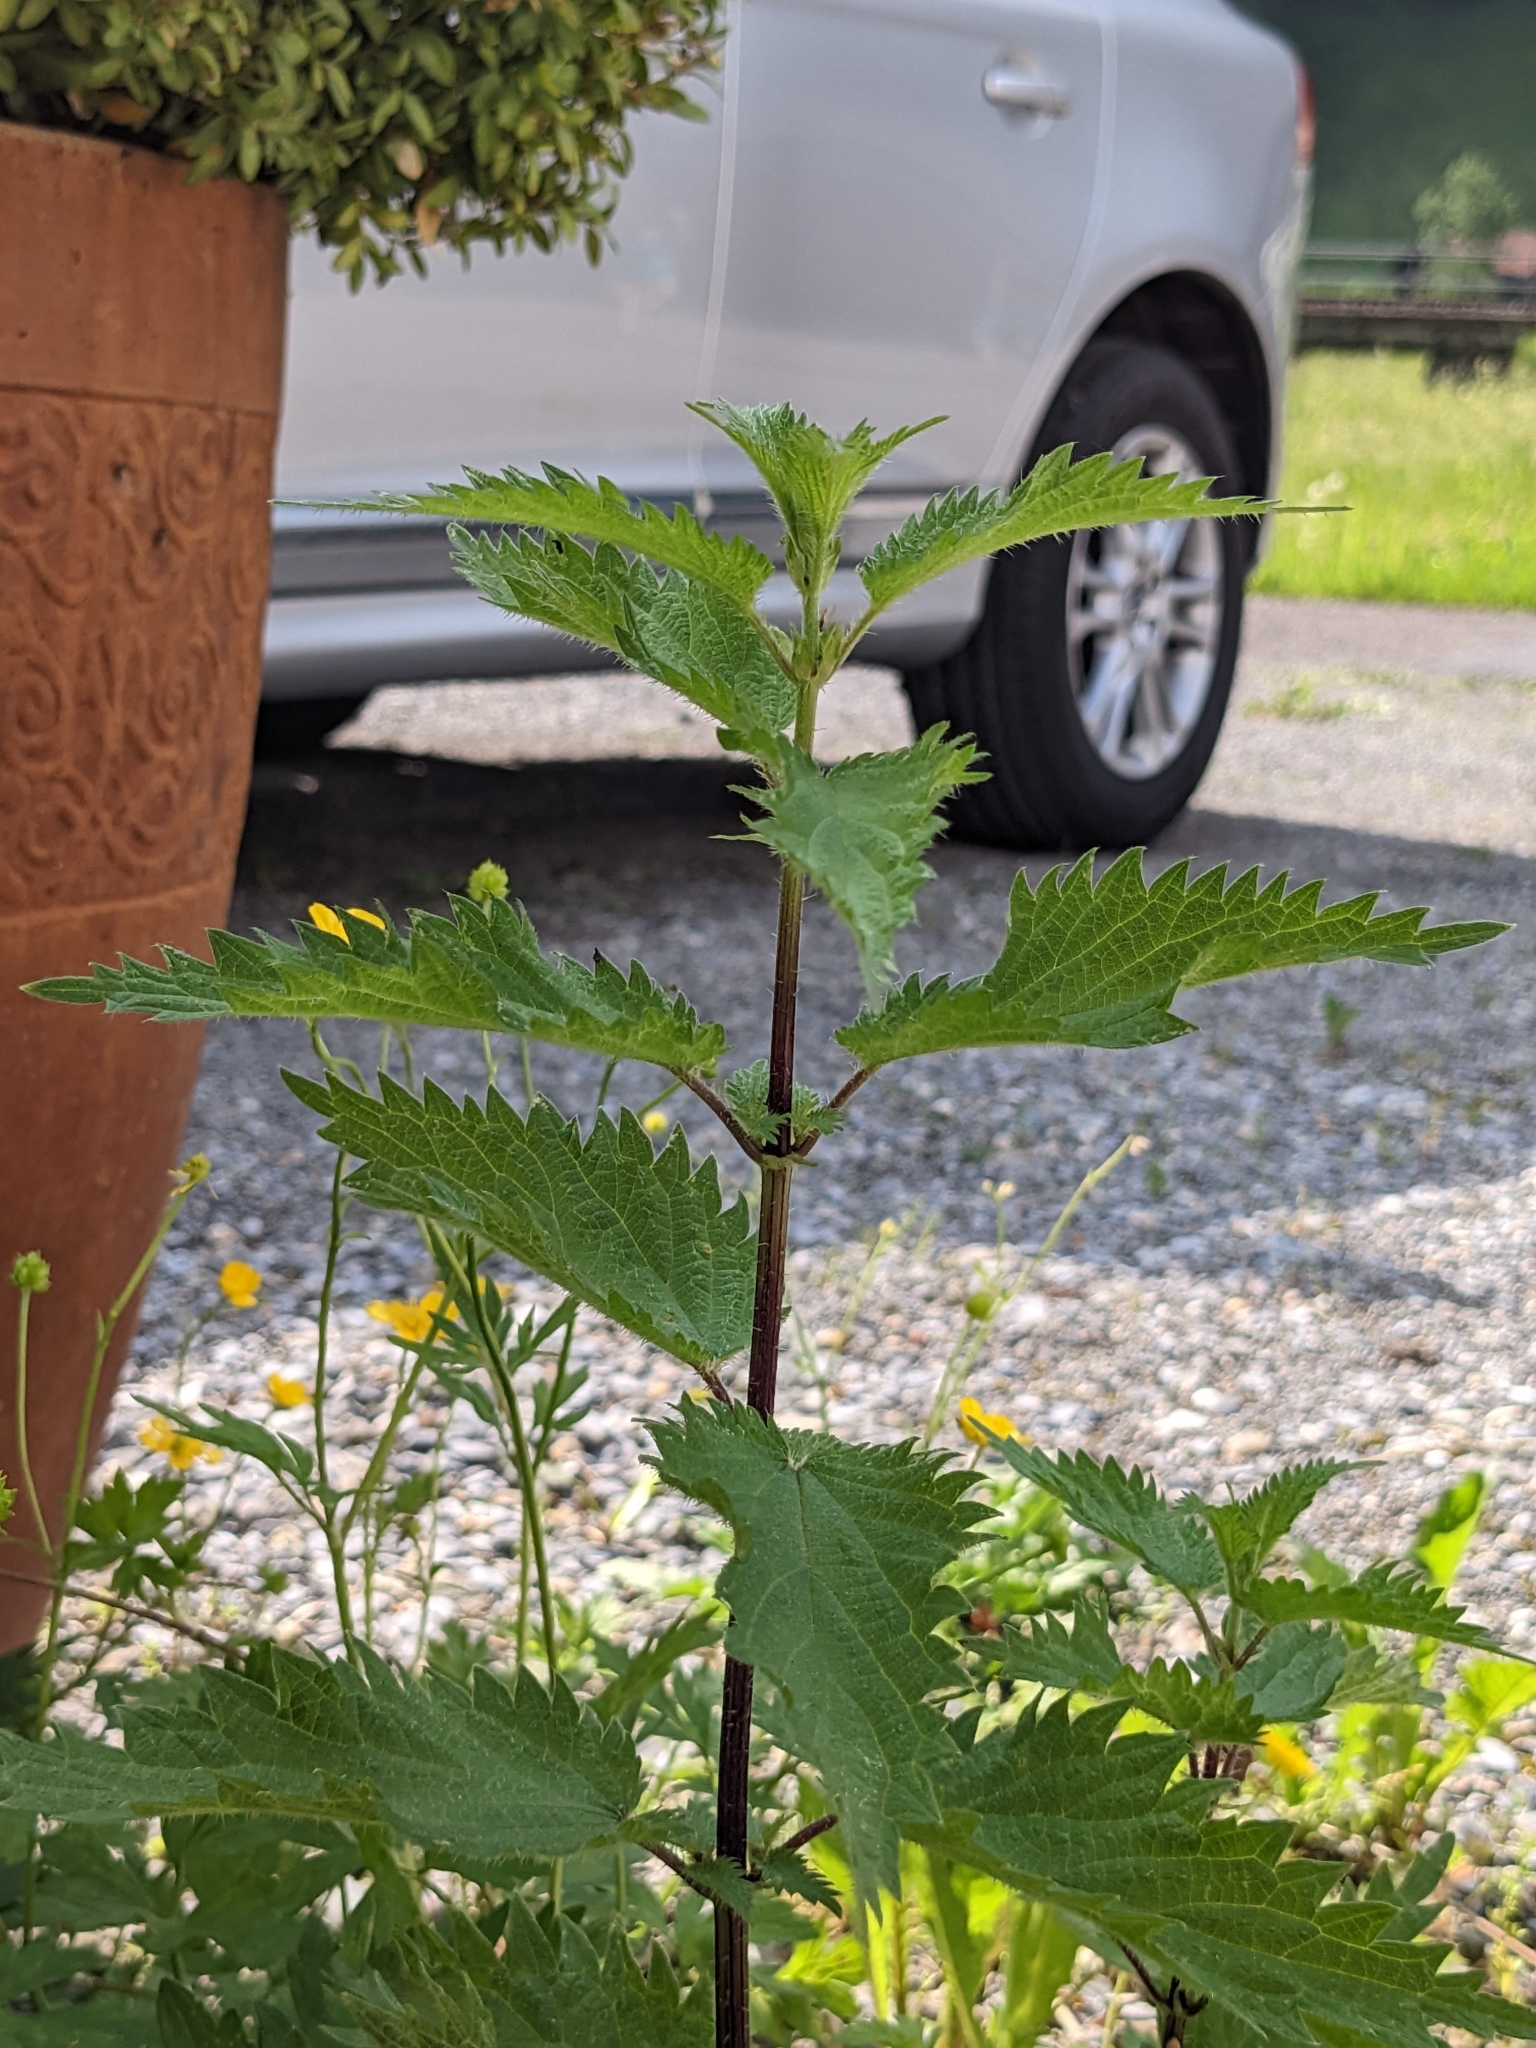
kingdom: Plantae
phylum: Tracheophyta
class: Magnoliopsida
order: Rosales
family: Urticaceae
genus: Urtica
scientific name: Urtica dioica
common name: Common nettle
